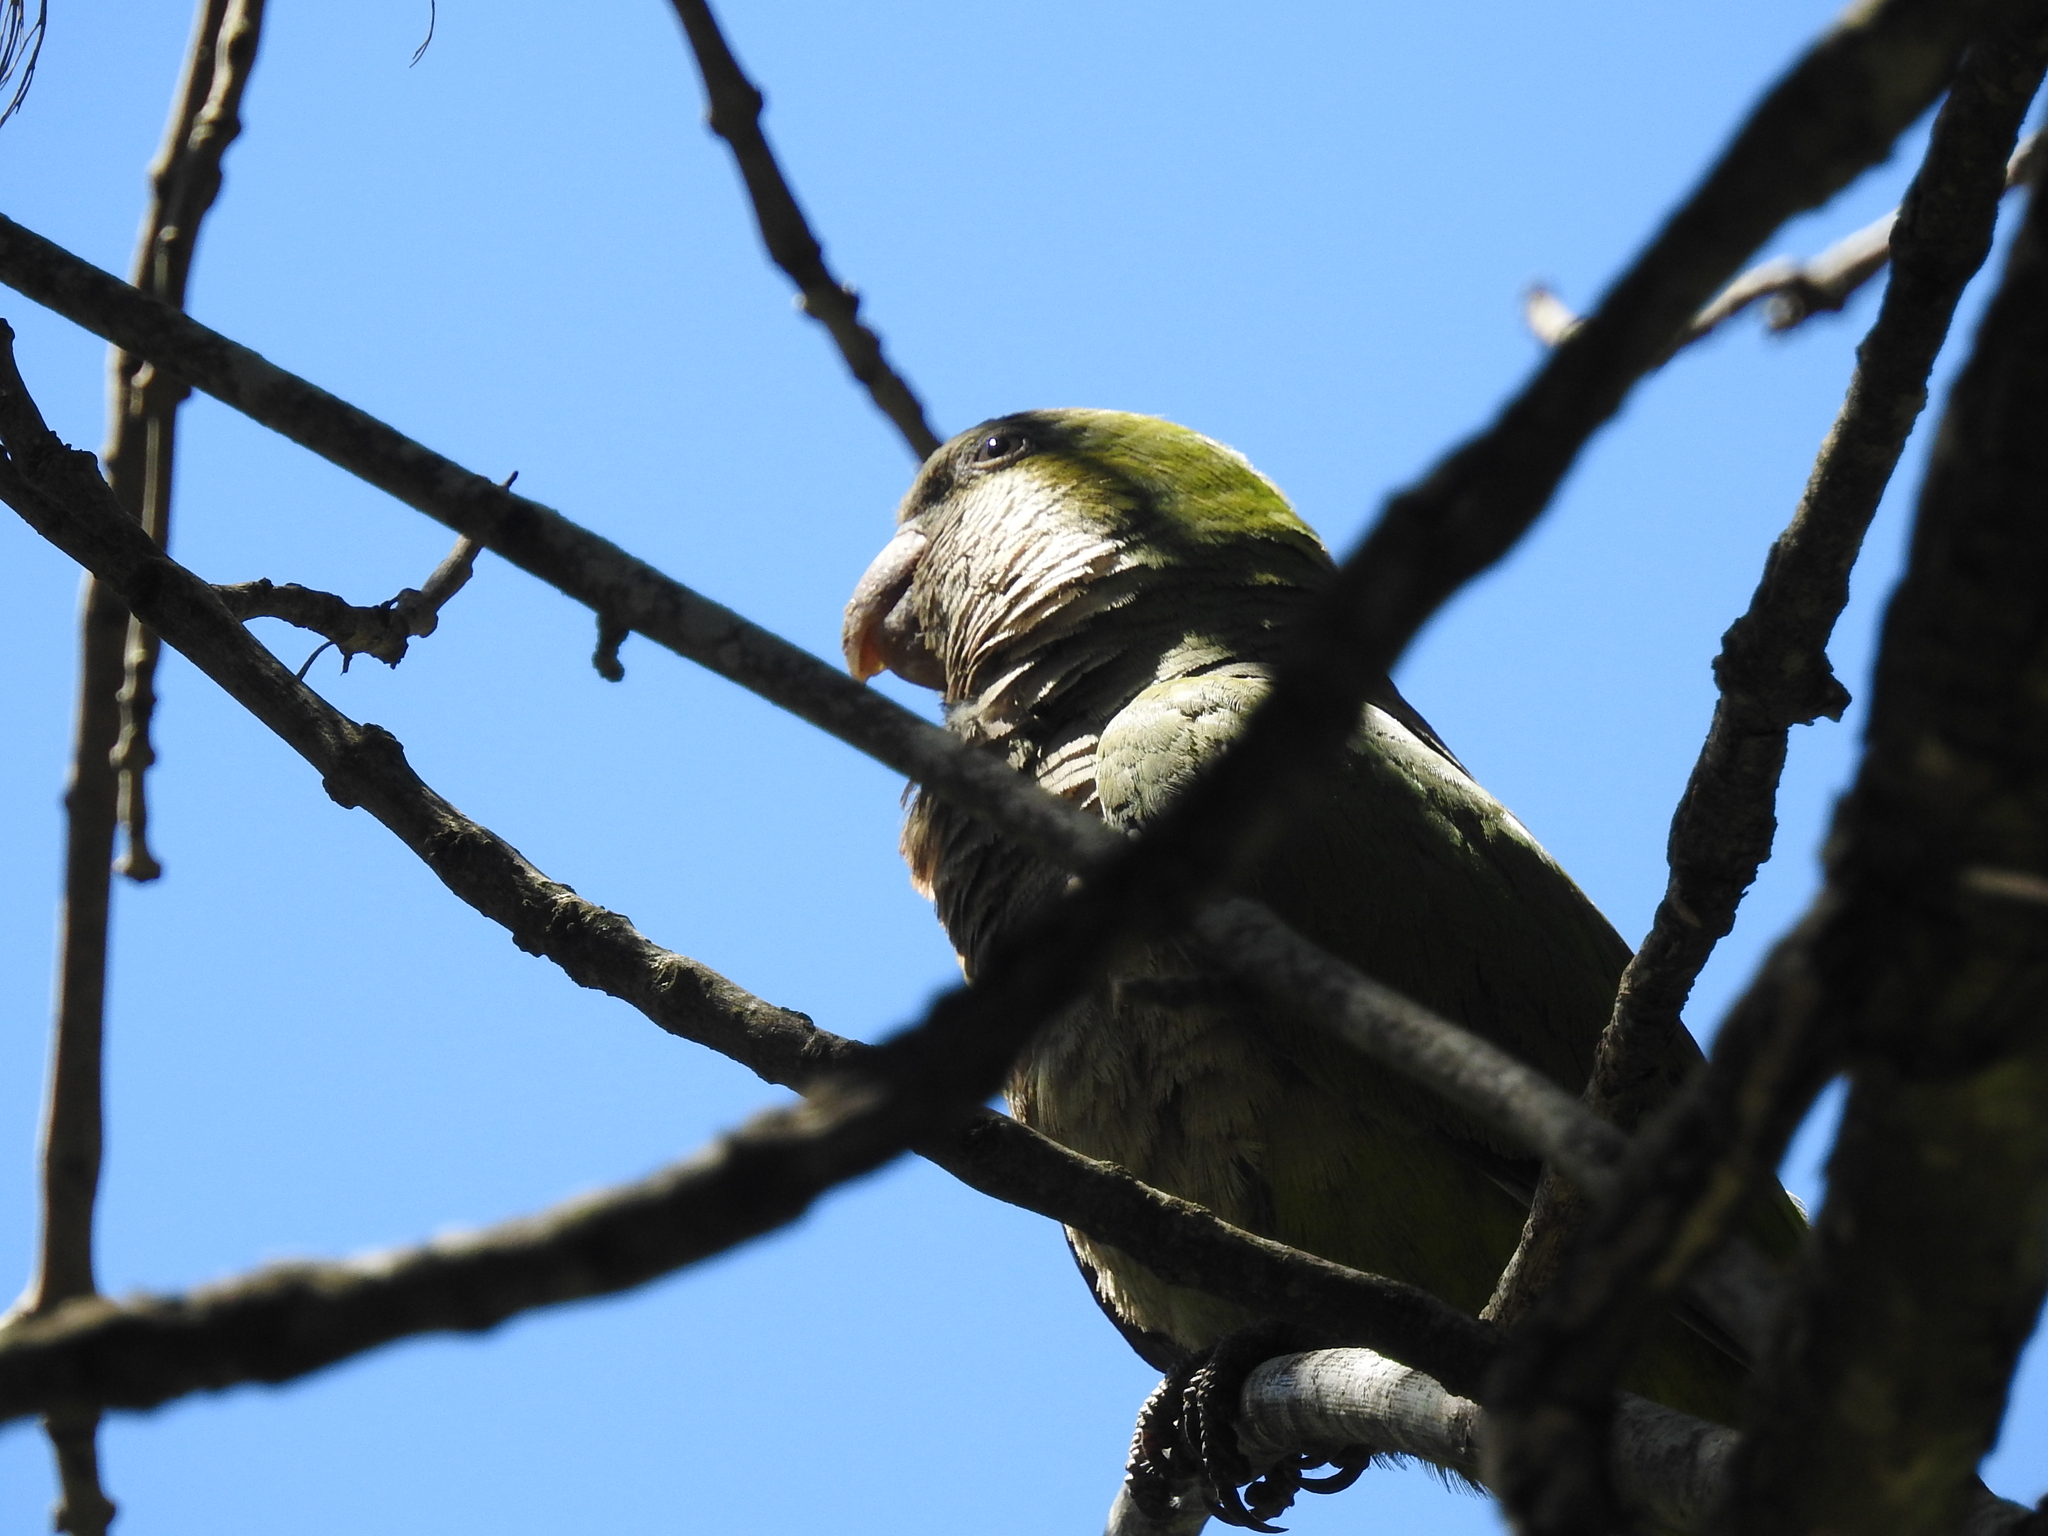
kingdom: Animalia
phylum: Chordata
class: Aves
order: Psittaciformes
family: Psittacidae
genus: Myiopsitta
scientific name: Myiopsitta monachus
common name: Monk parakeet
